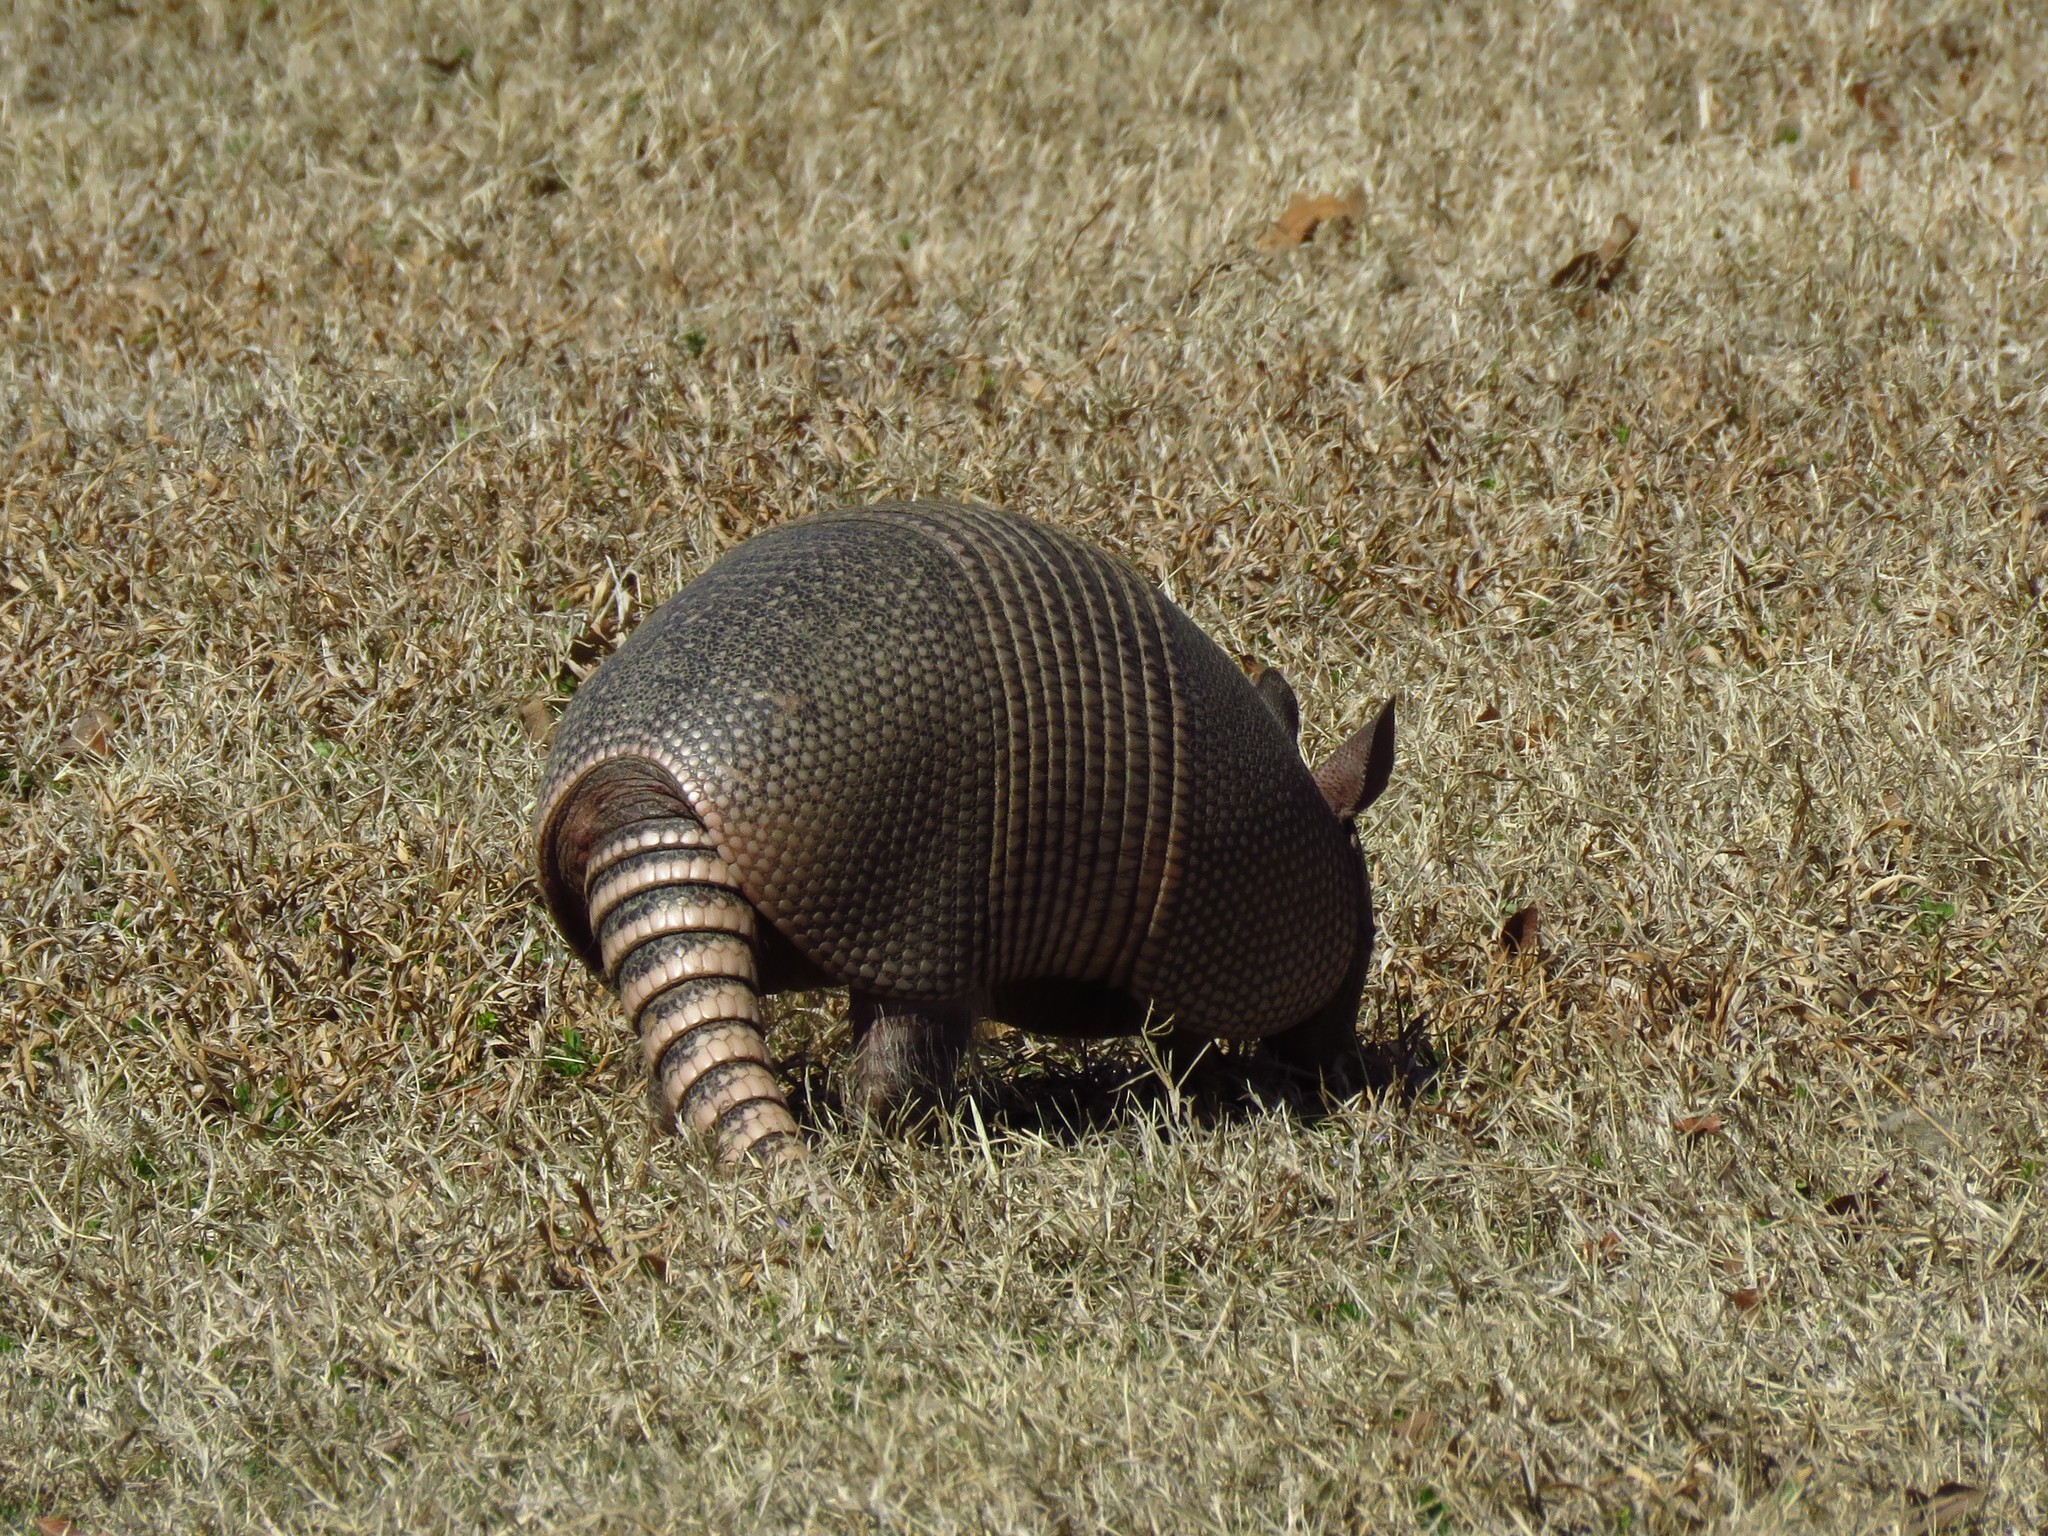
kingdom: Animalia
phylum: Chordata
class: Mammalia
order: Cingulata
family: Dasypodidae
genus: Dasypus
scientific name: Dasypus novemcinctus
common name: Nine-banded armadillo
